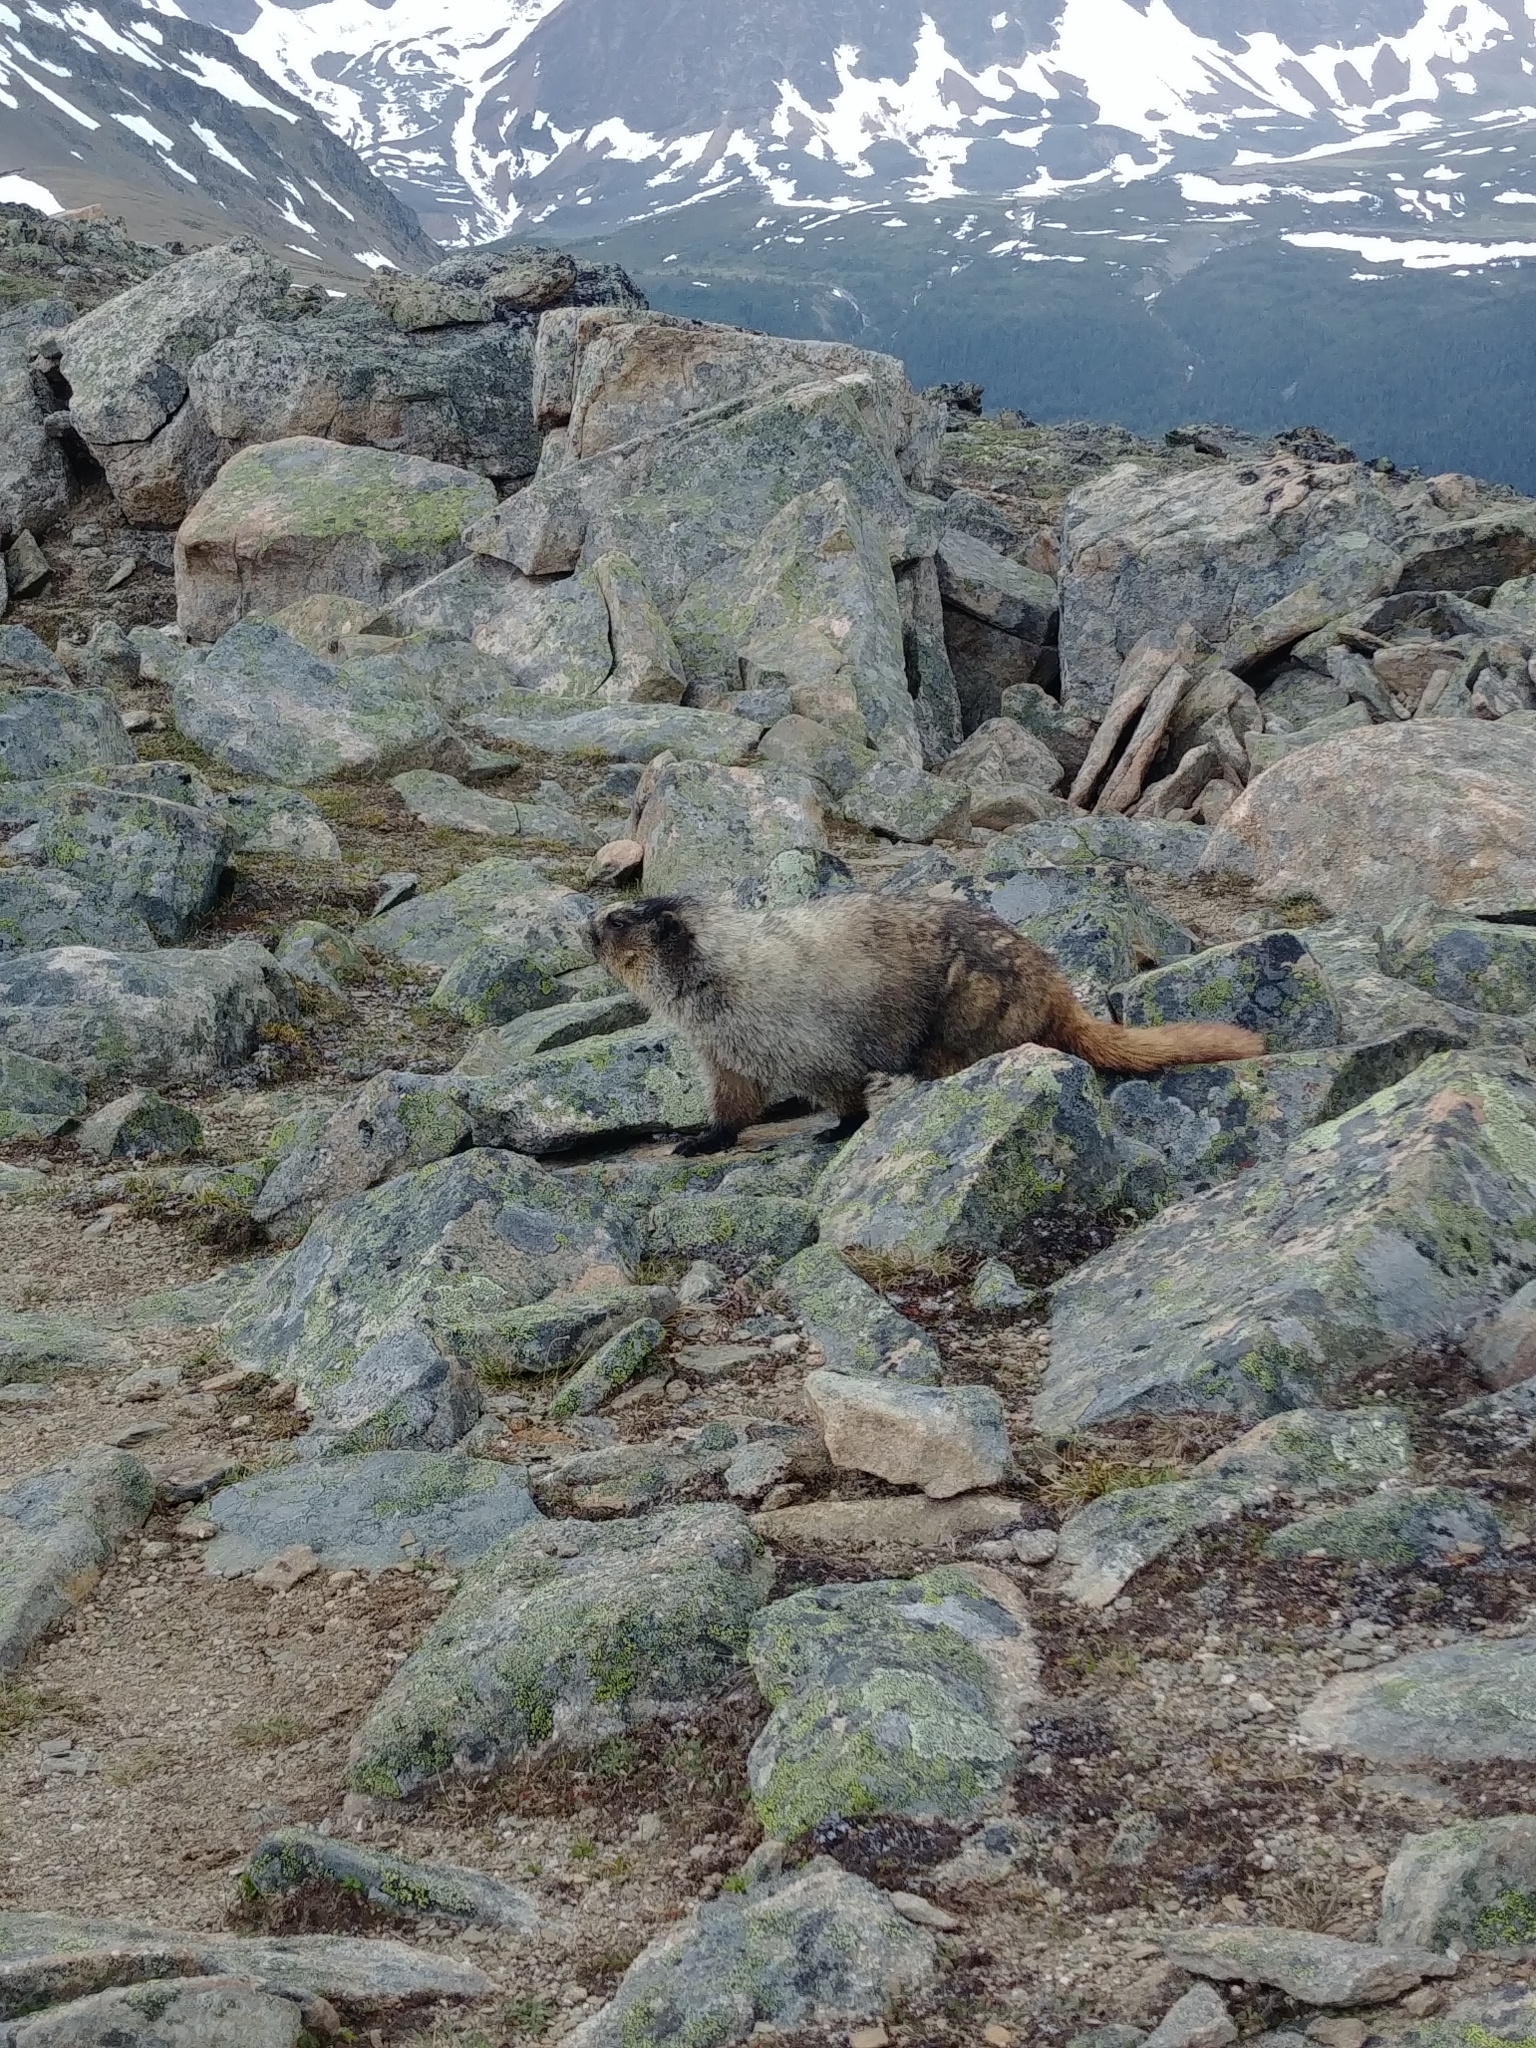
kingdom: Animalia
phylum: Chordata
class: Mammalia
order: Rodentia
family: Sciuridae
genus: Marmota
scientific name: Marmota caligata
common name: Hoary marmot
